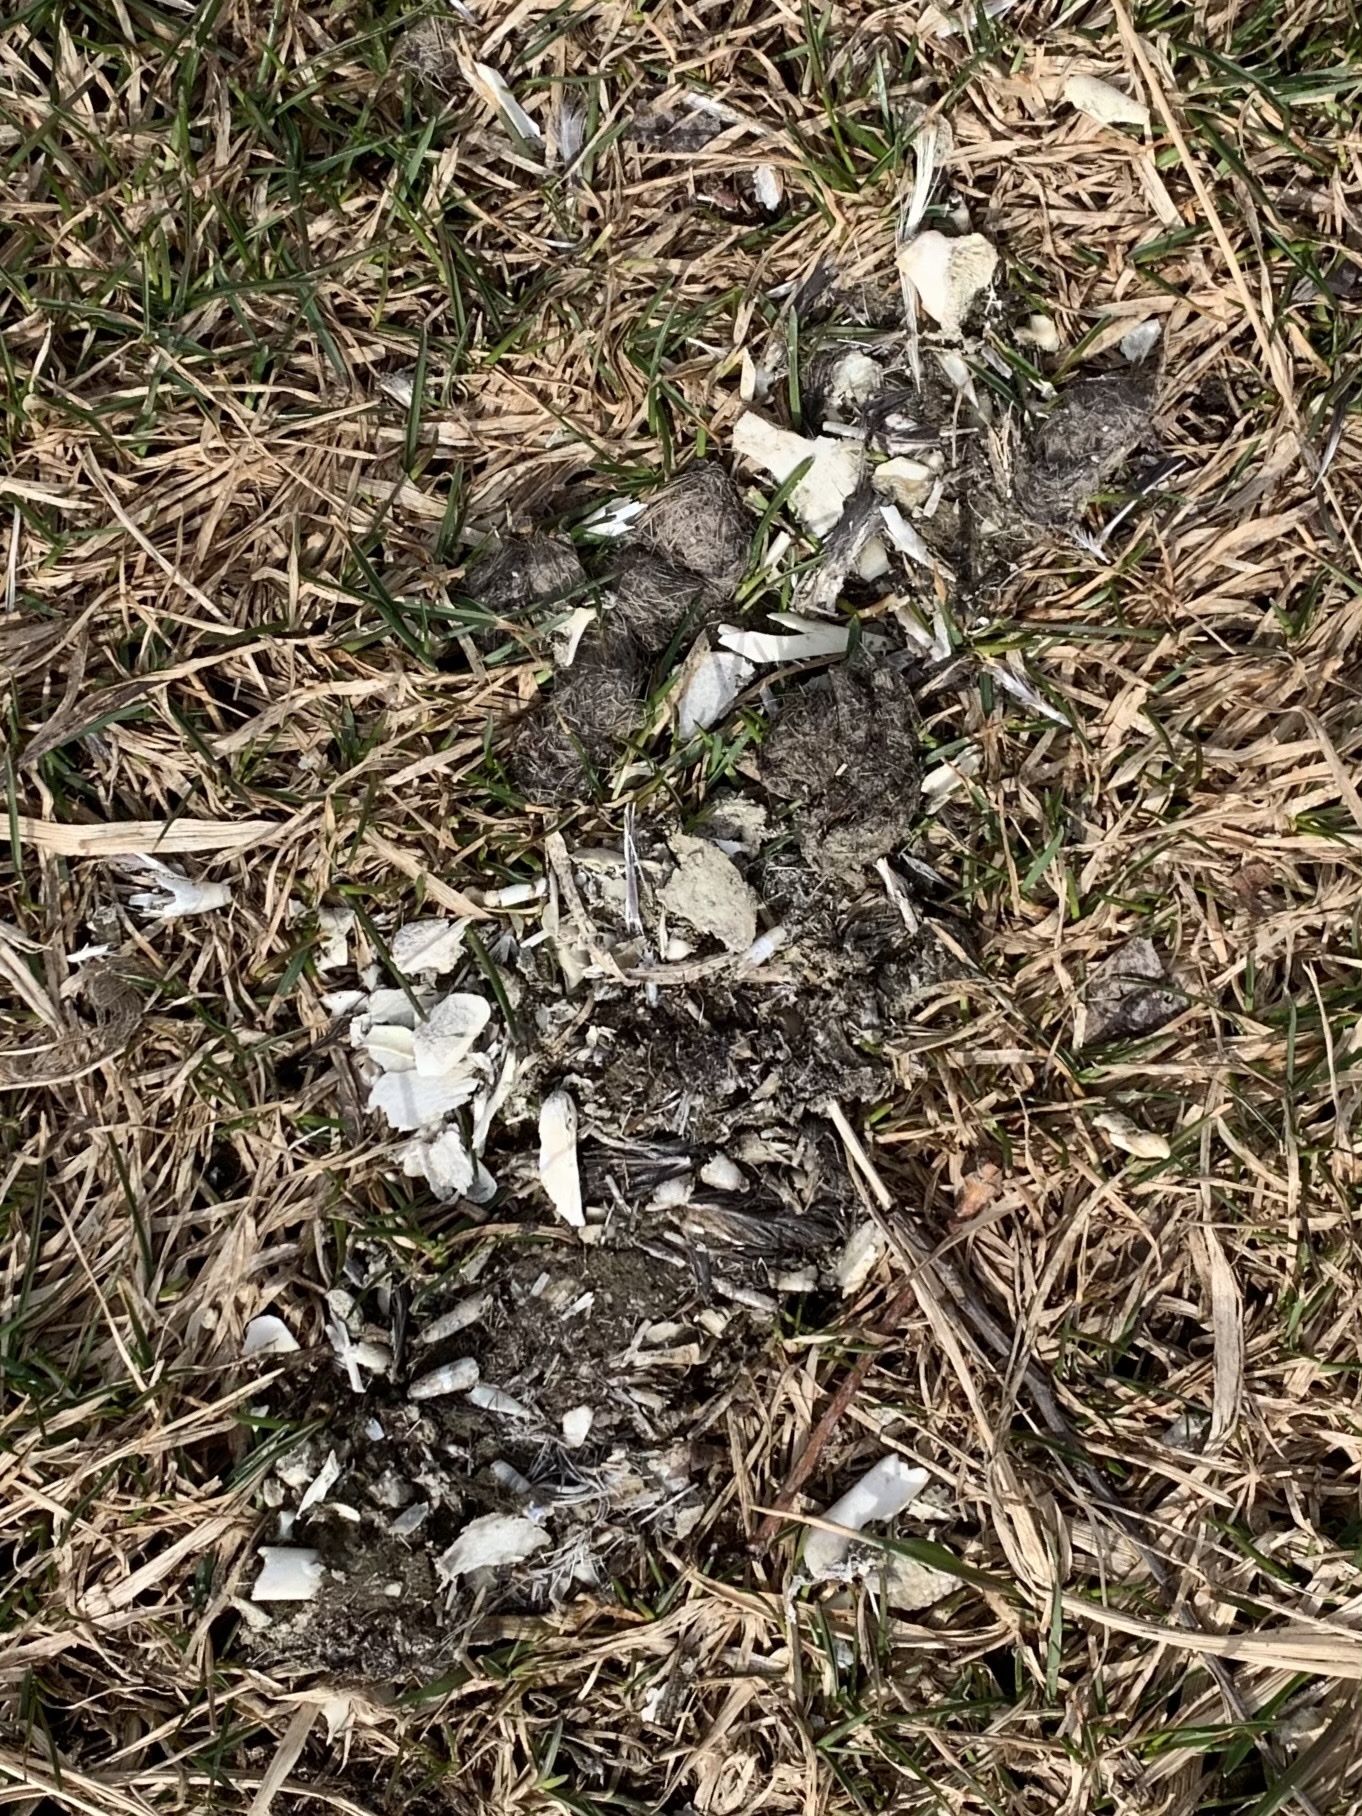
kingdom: Animalia
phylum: Chordata
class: Mammalia
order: Carnivora
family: Canidae
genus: Canis
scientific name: Canis latrans
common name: Coyote
